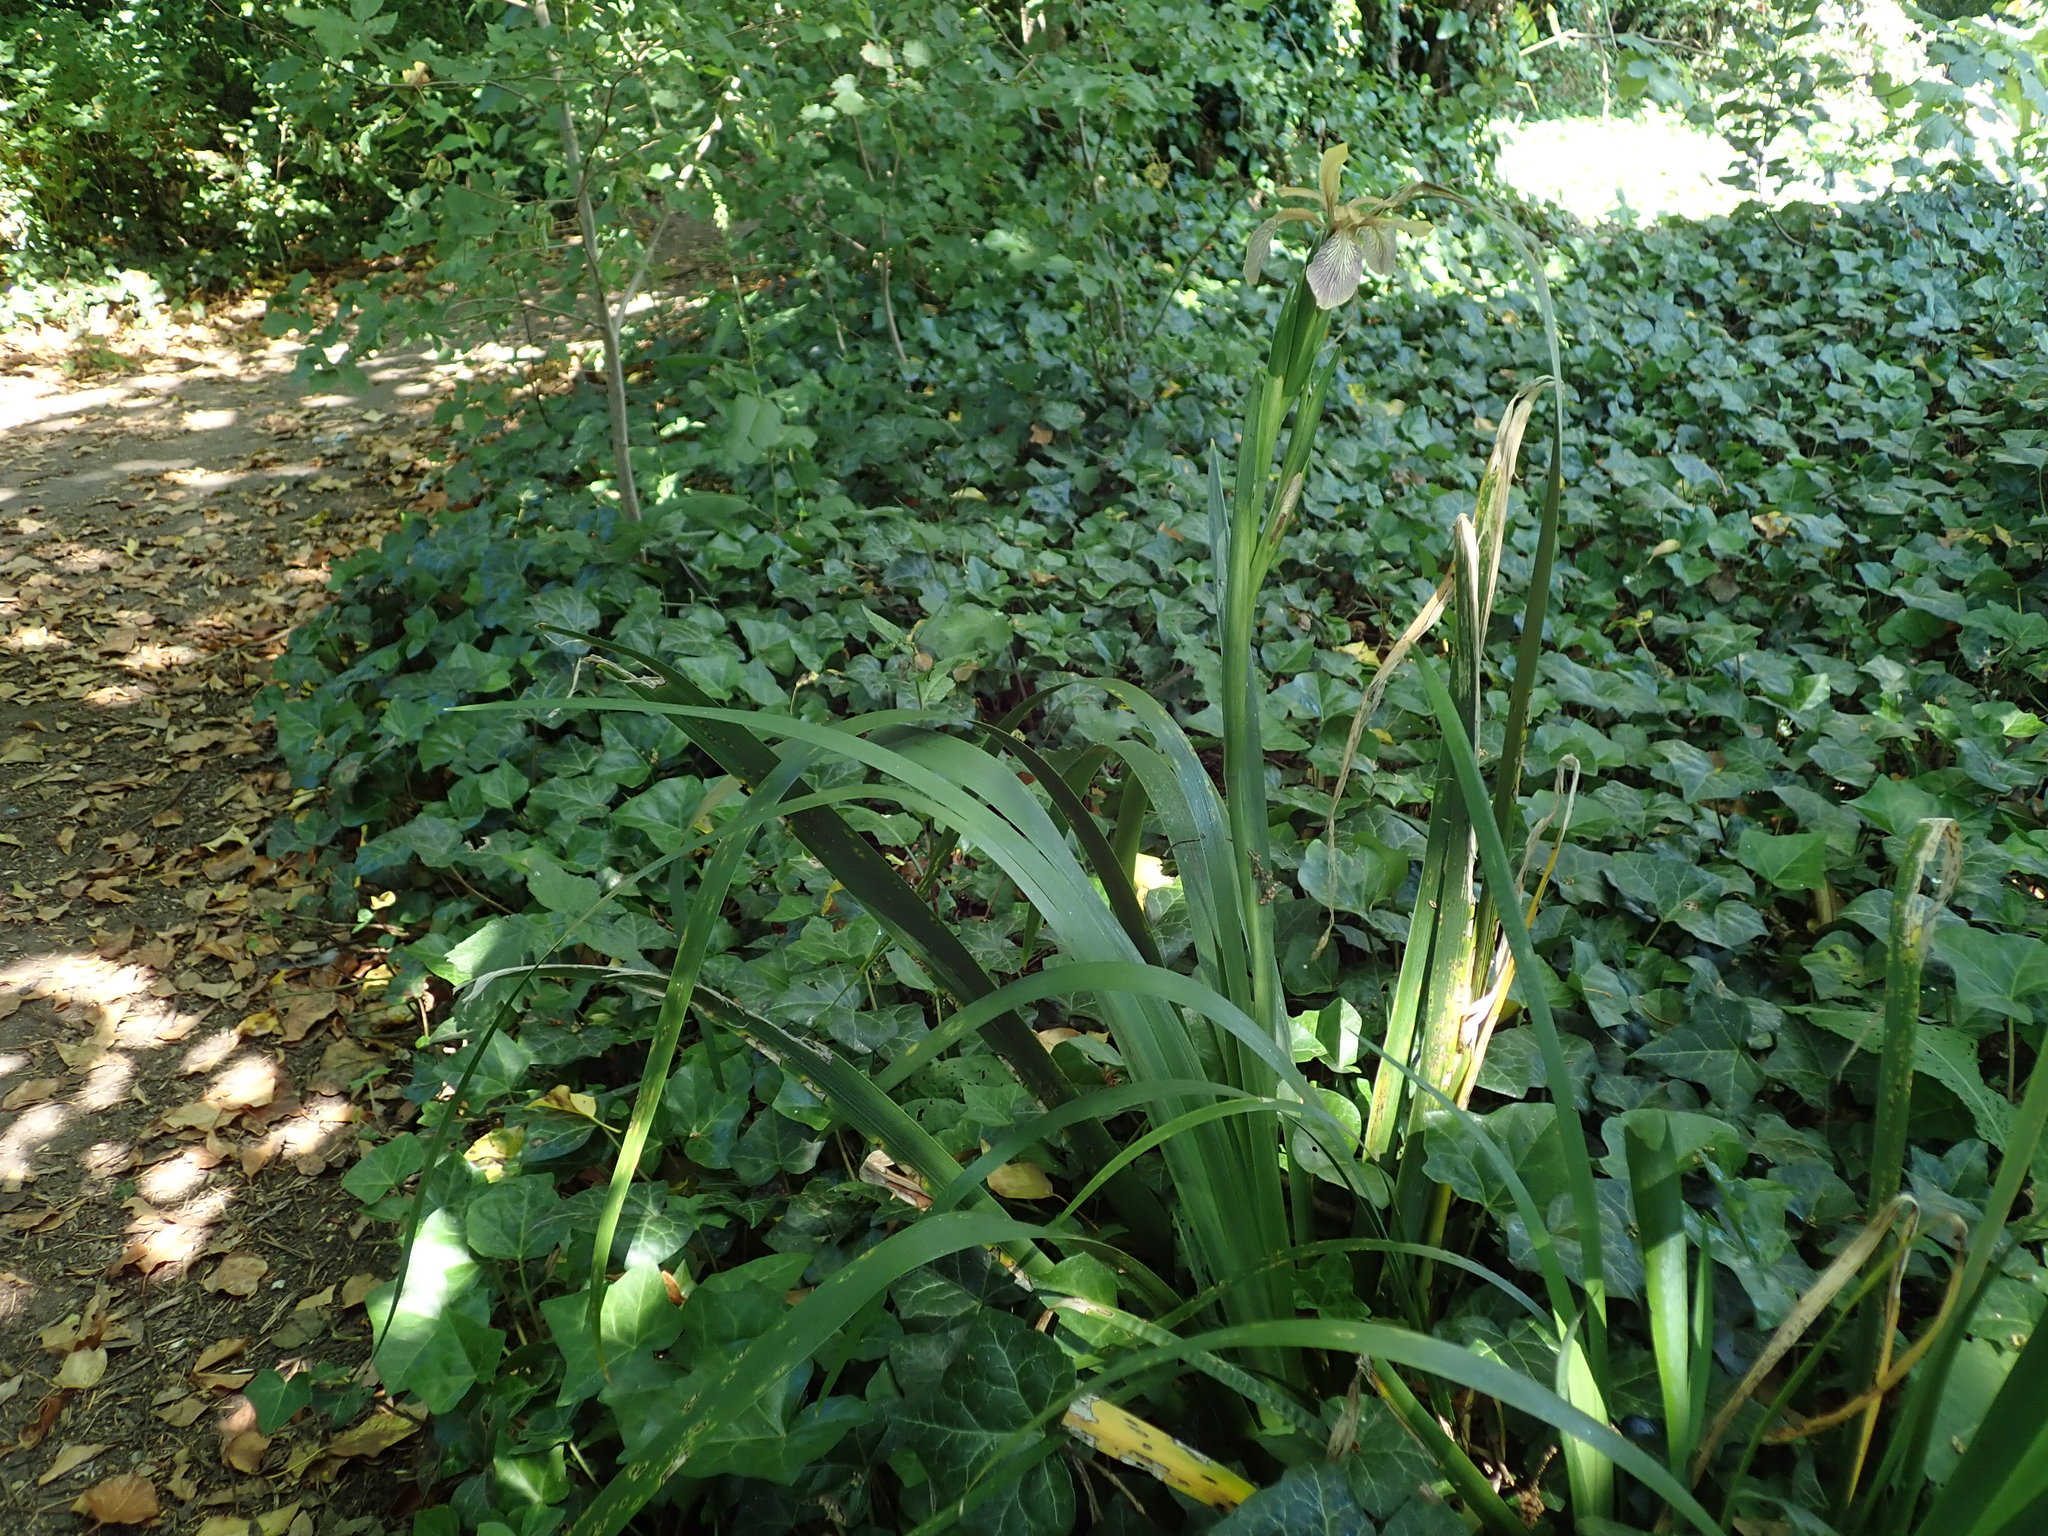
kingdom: Plantae
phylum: Tracheophyta
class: Liliopsida
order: Asparagales
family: Iridaceae
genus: Iris
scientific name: Iris foetidissima
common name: Stinking iris
